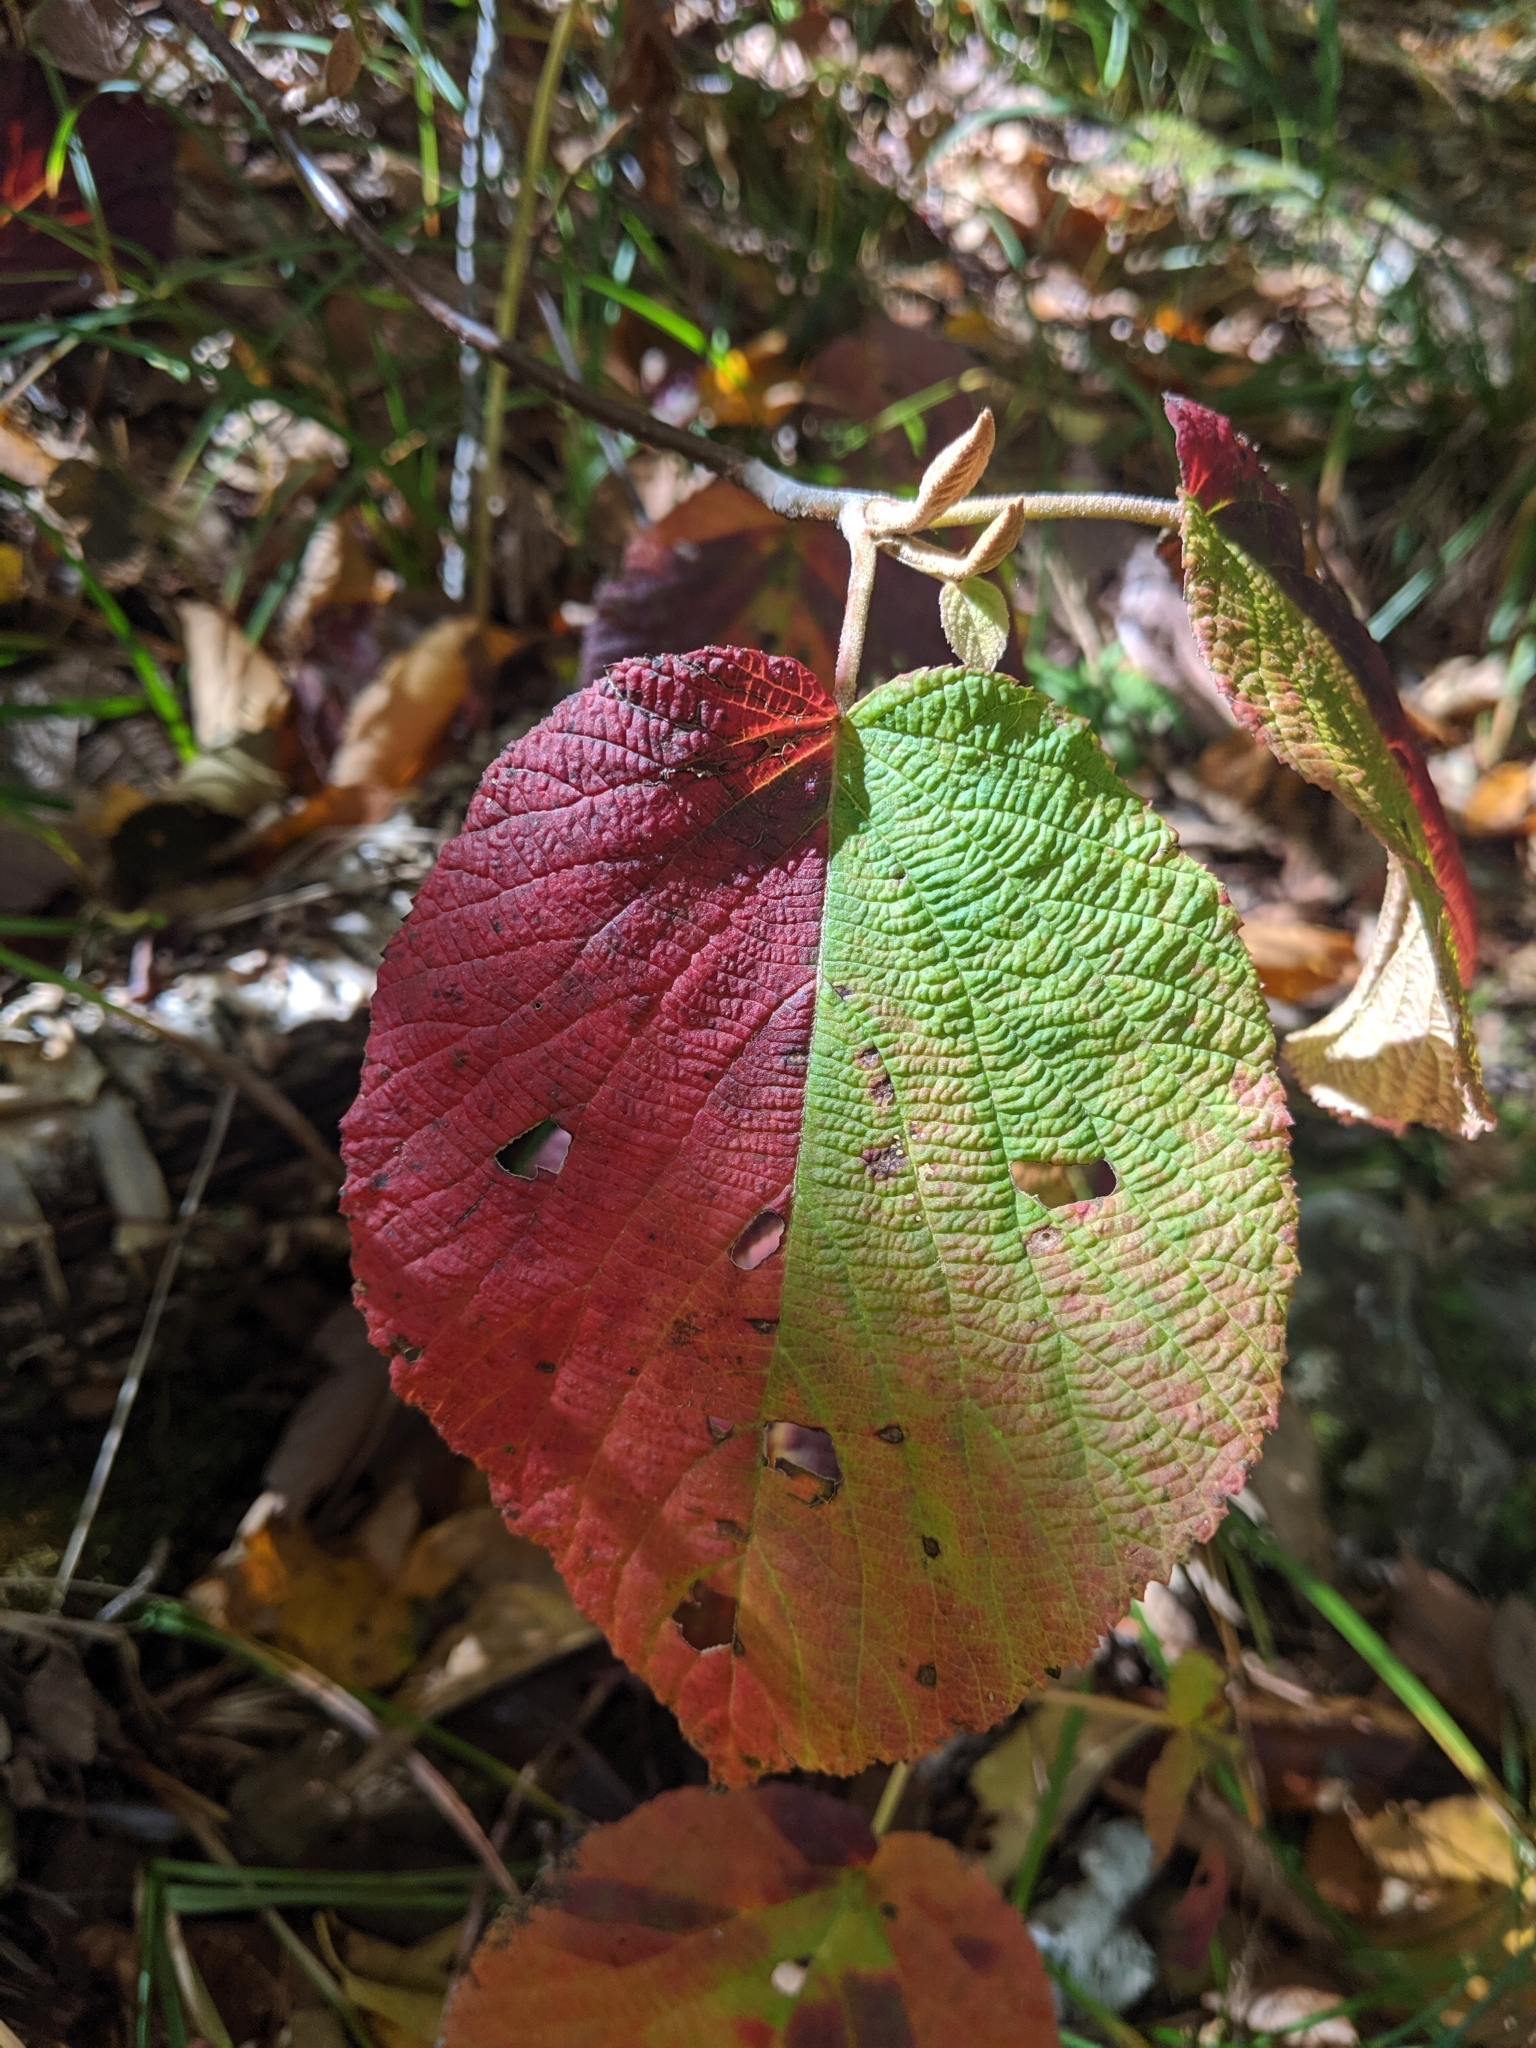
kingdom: Plantae
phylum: Tracheophyta
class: Magnoliopsida
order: Dipsacales
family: Viburnaceae
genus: Viburnum
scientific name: Viburnum lantanoides
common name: Hobblebush
